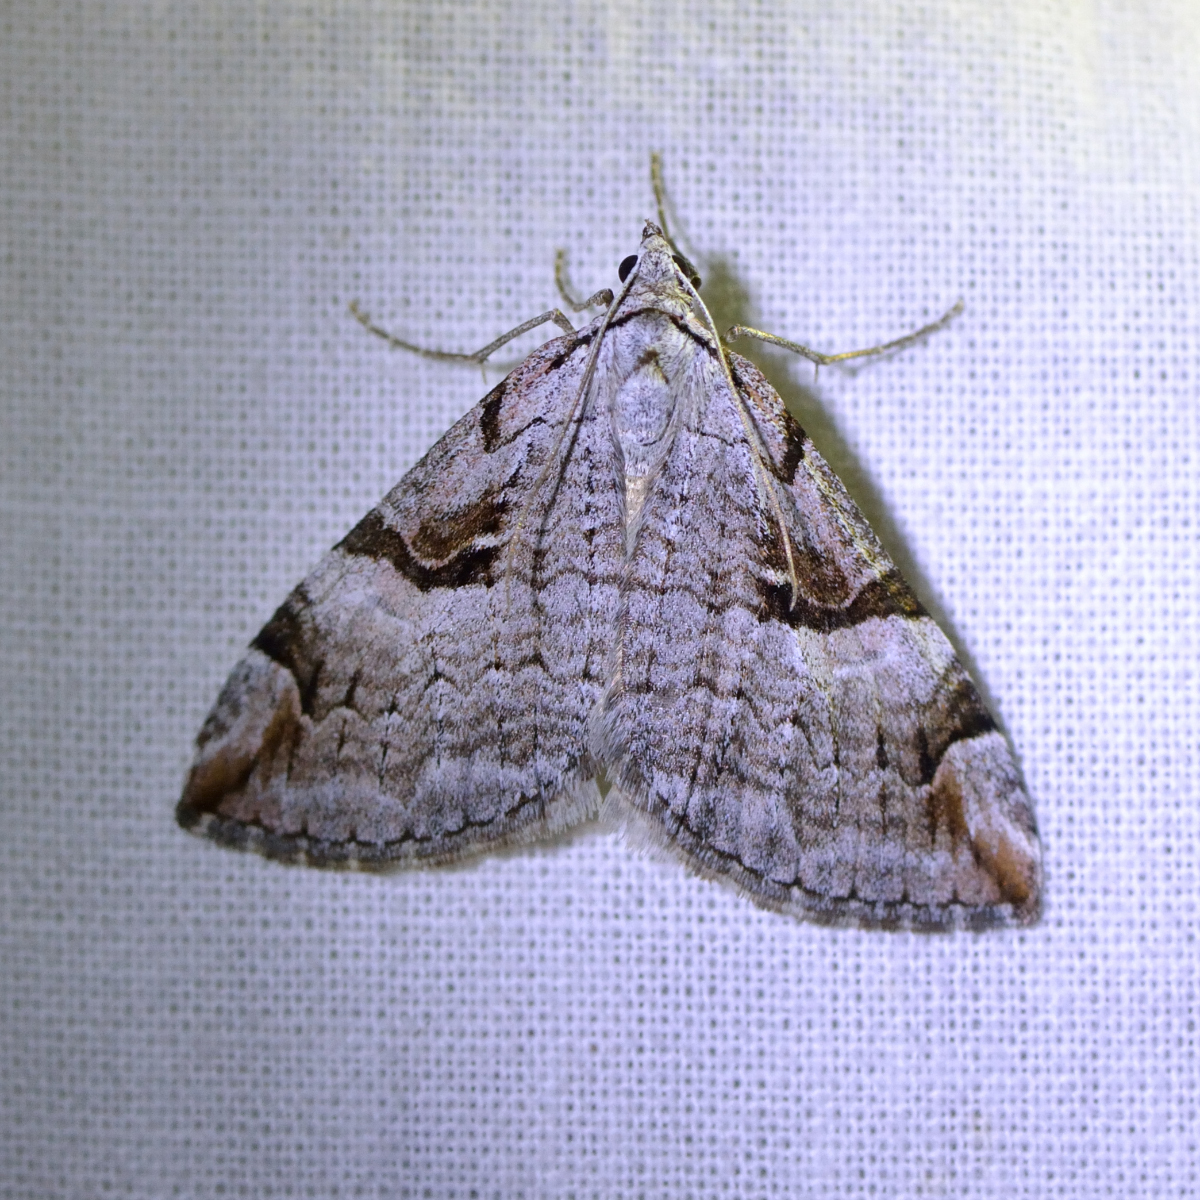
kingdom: Animalia
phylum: Arthropoda
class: Insecta
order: Lepidoptera
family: Geometridae
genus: Aplocera
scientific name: Aplocera praeformata
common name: Purple treble-bar
